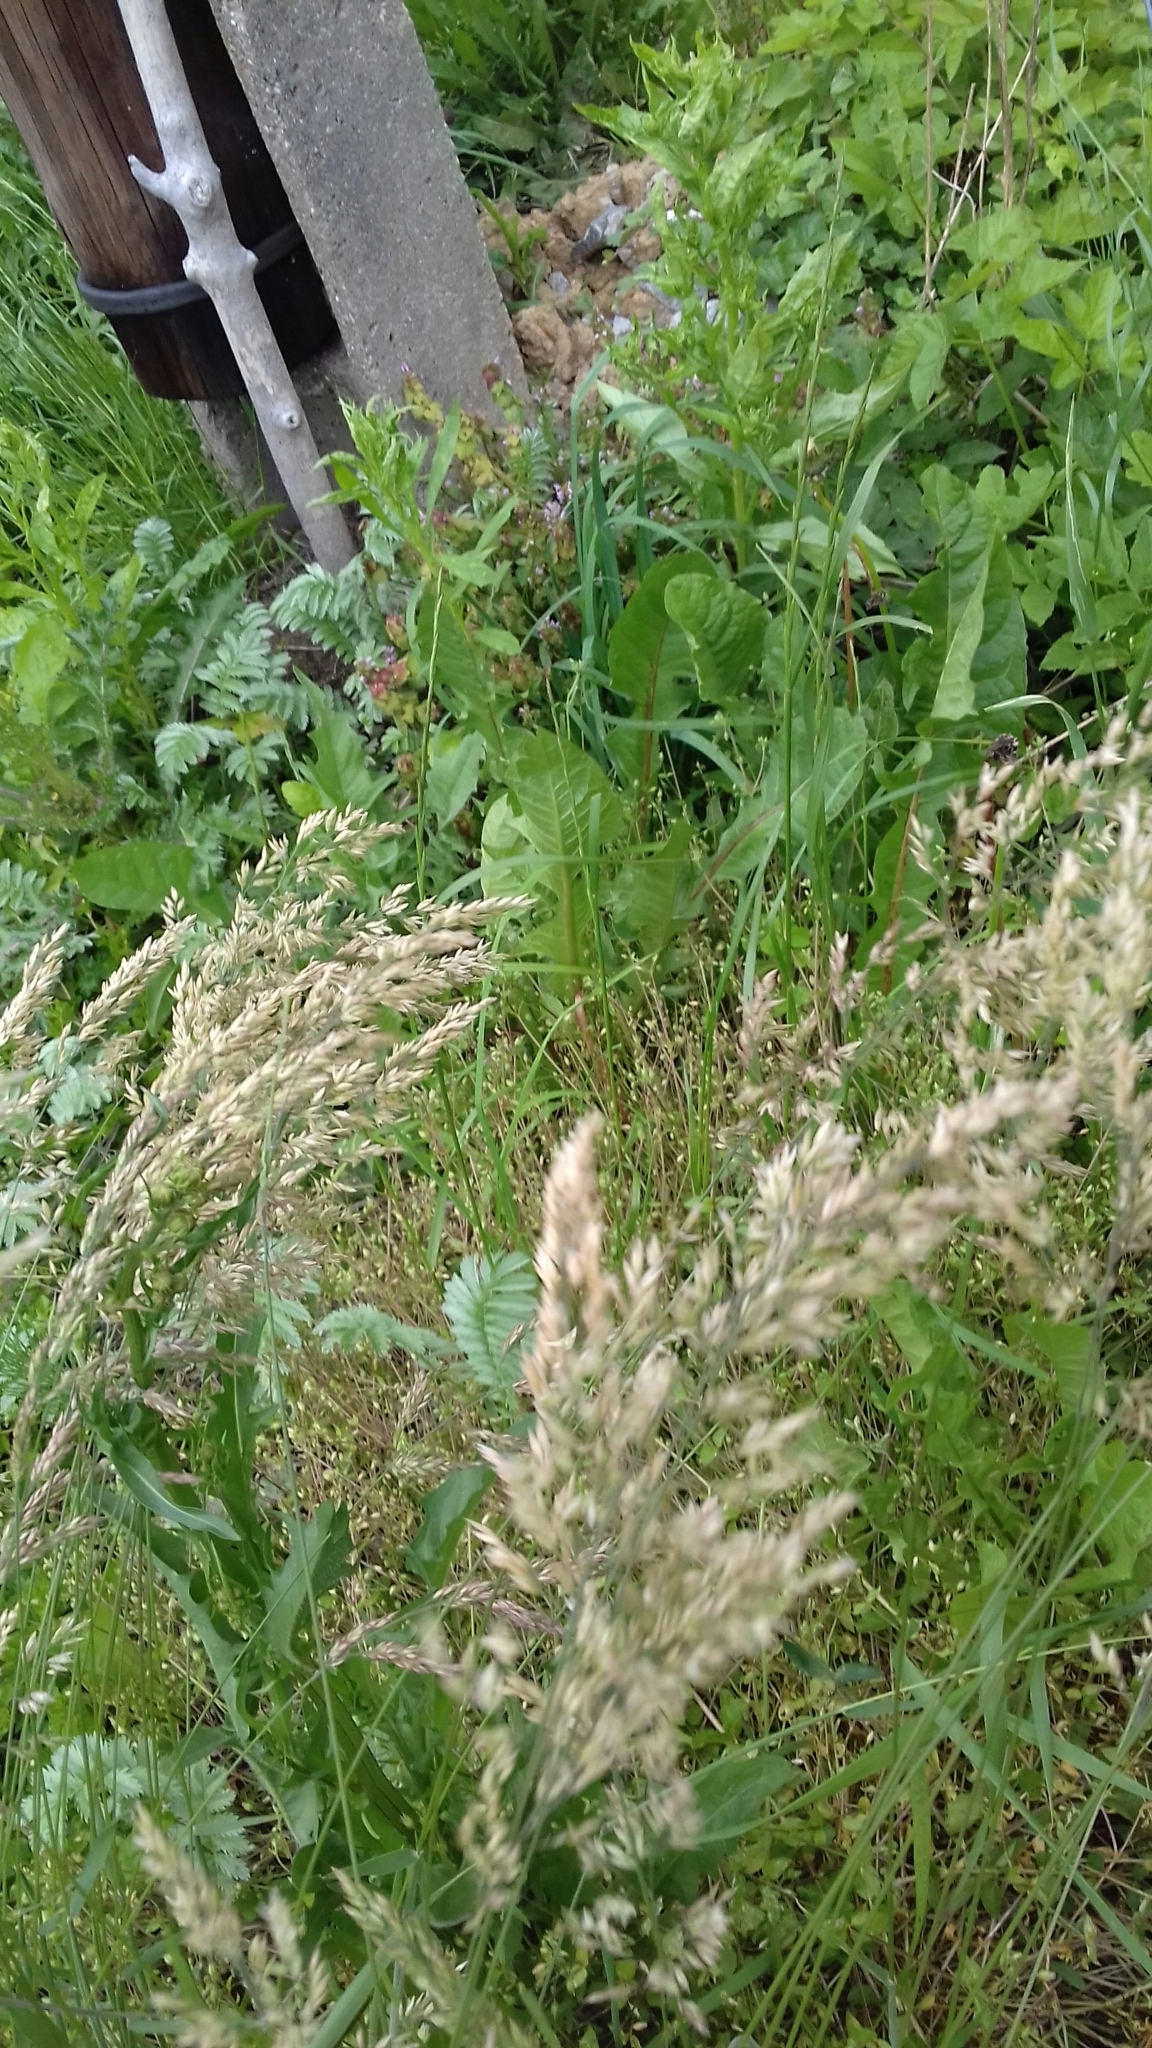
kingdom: Plantae
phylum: Tracheophyta
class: Liliopsida
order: Poales
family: Poaceae
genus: Holcus
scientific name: Holcus lanatus
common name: Yorkshire-fog
